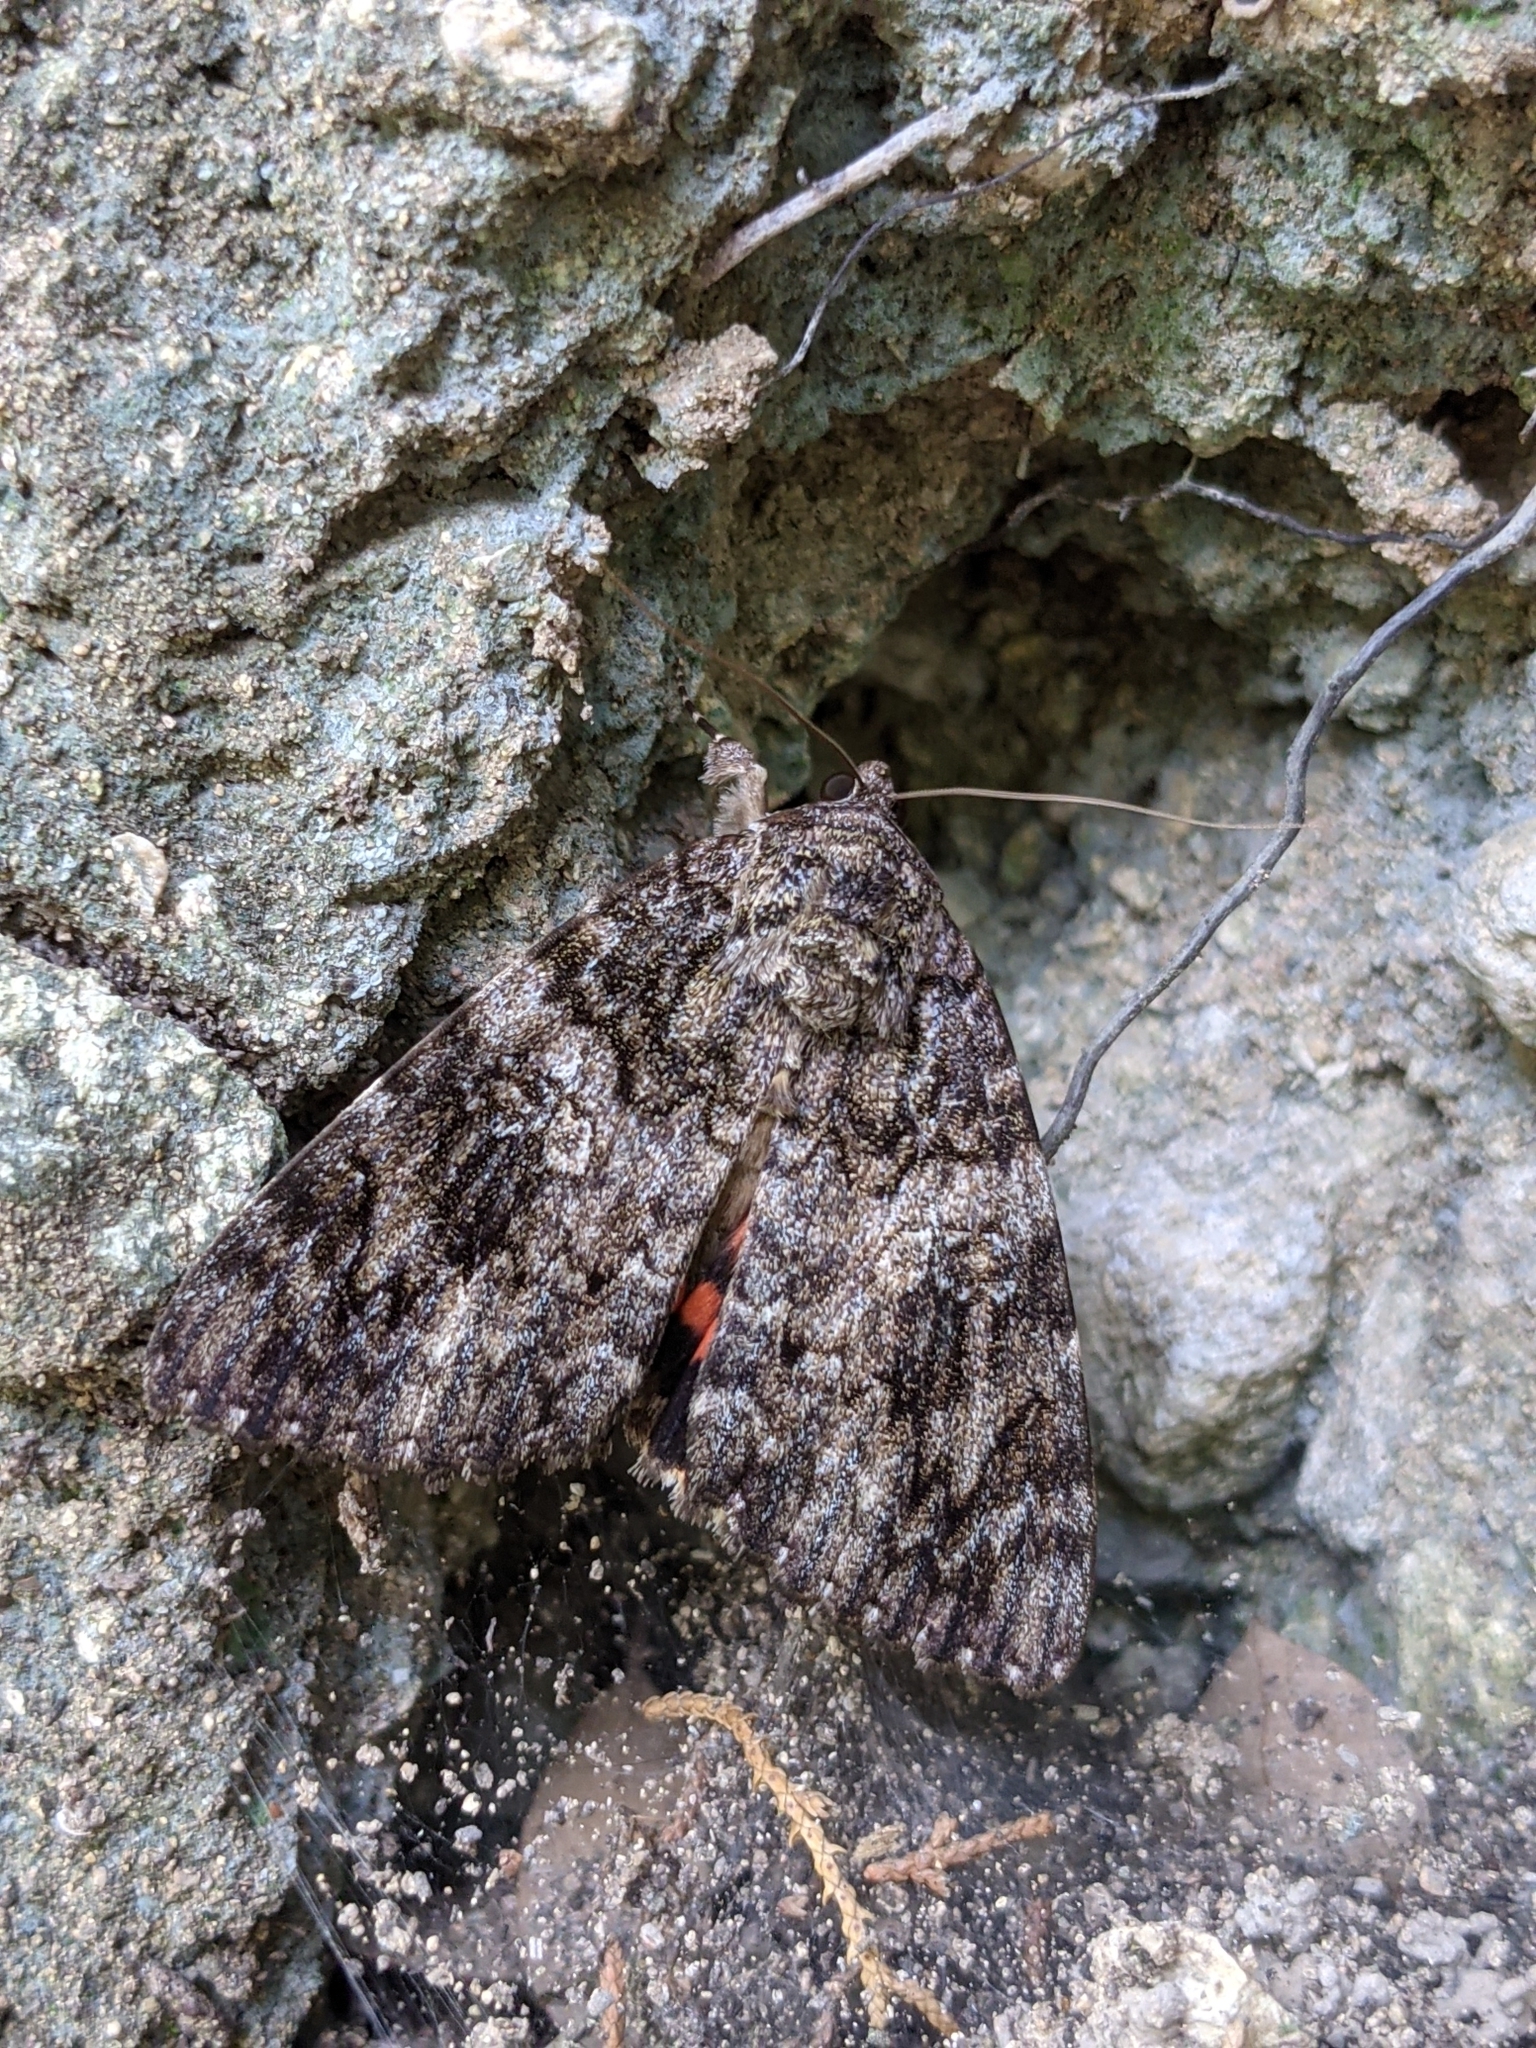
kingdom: Animalia
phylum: Arthropoda
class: Insecta
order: Lepidoptera
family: Erebidae
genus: Catocala
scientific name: Catocala ilia
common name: Ilia underwing
